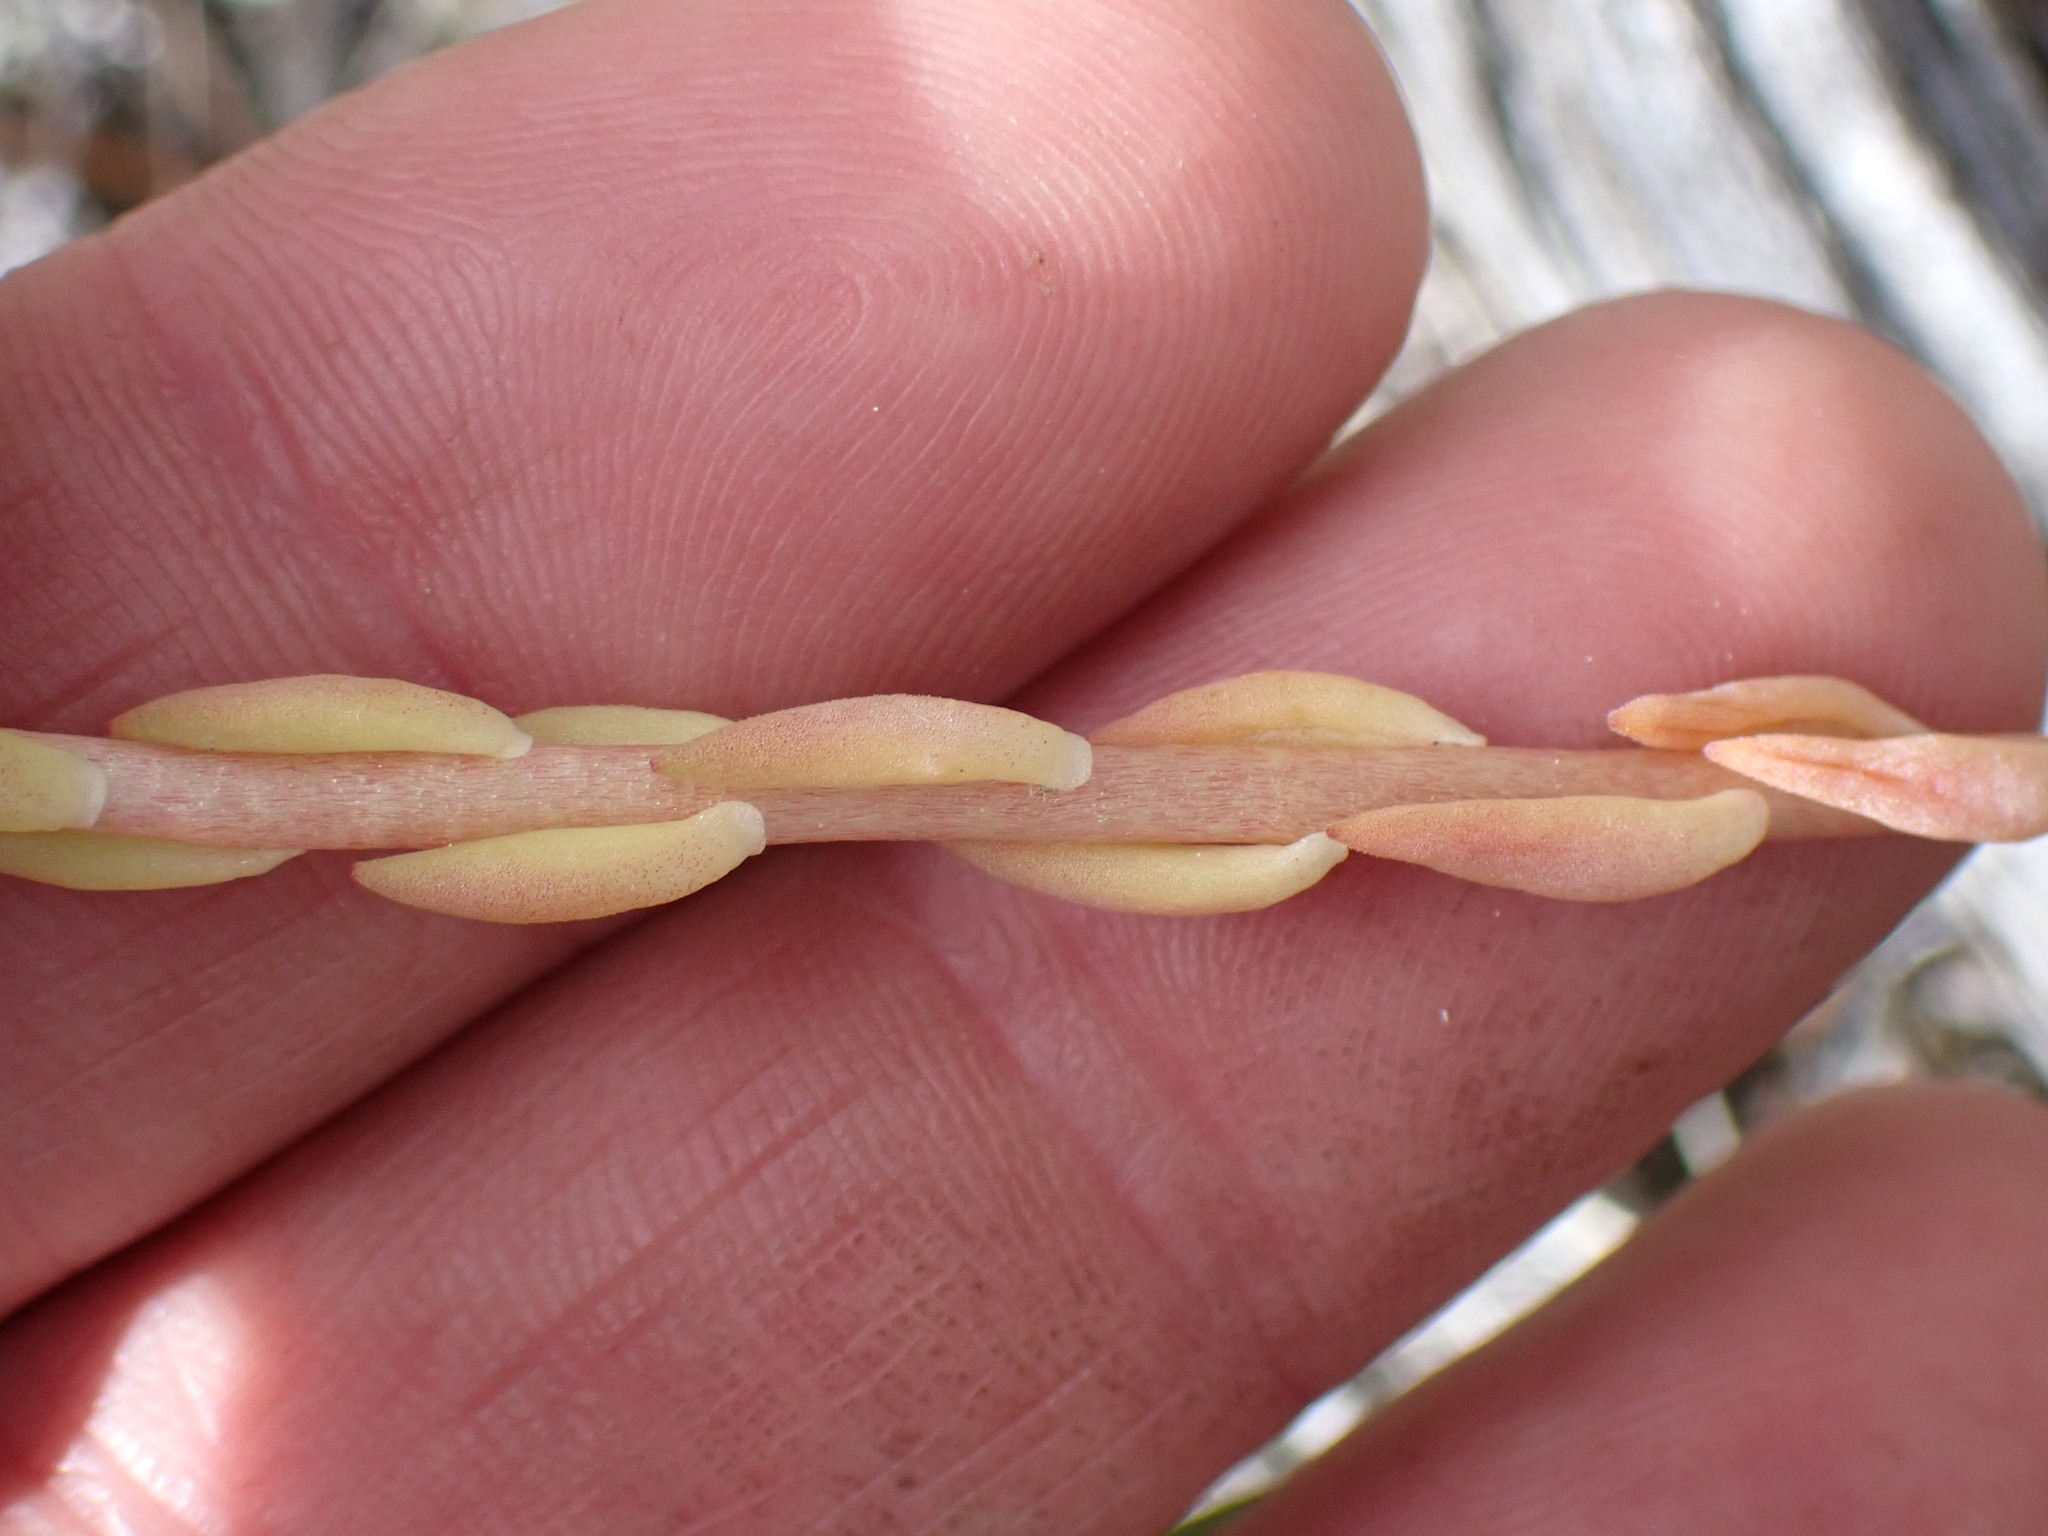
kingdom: Plantae
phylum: Tracheophyta
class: Magnoliopsida
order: Saxifragales
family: Crassulaceae
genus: Sedum
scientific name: Sedum lanceolatum
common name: Common stonecrop
